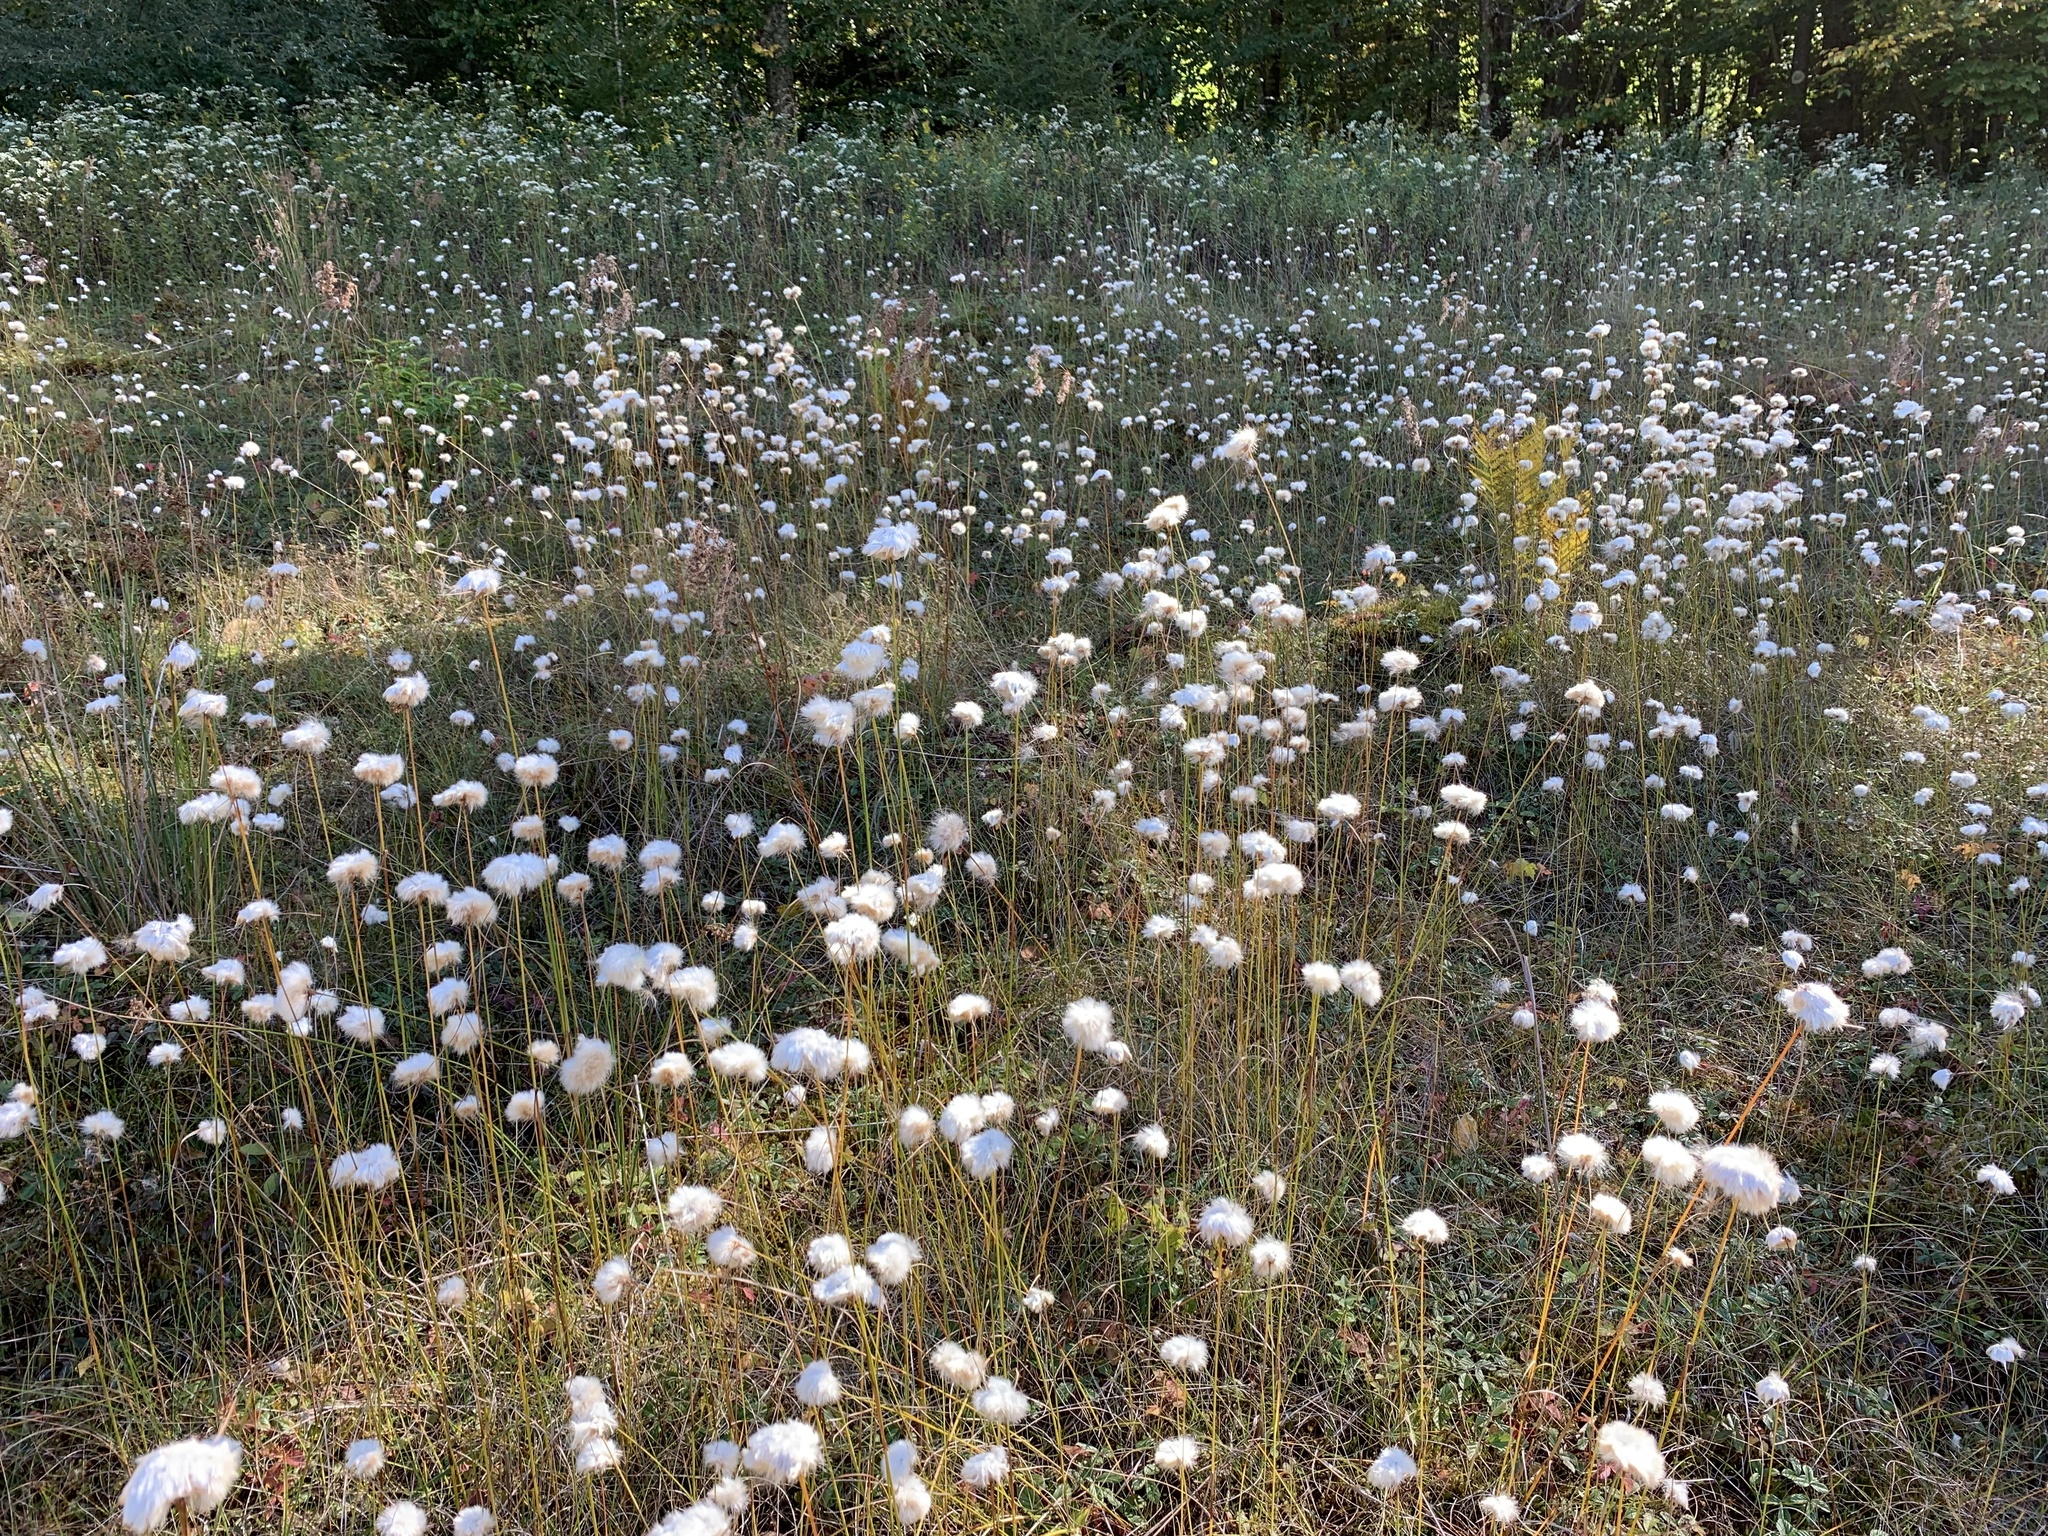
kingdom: Plantae
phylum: Tracheophyta
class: Liliopsida
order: Poales
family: Cyperaceae
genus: Eriophorum
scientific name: Eriophorum virginicum
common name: Tawny cottongrass
